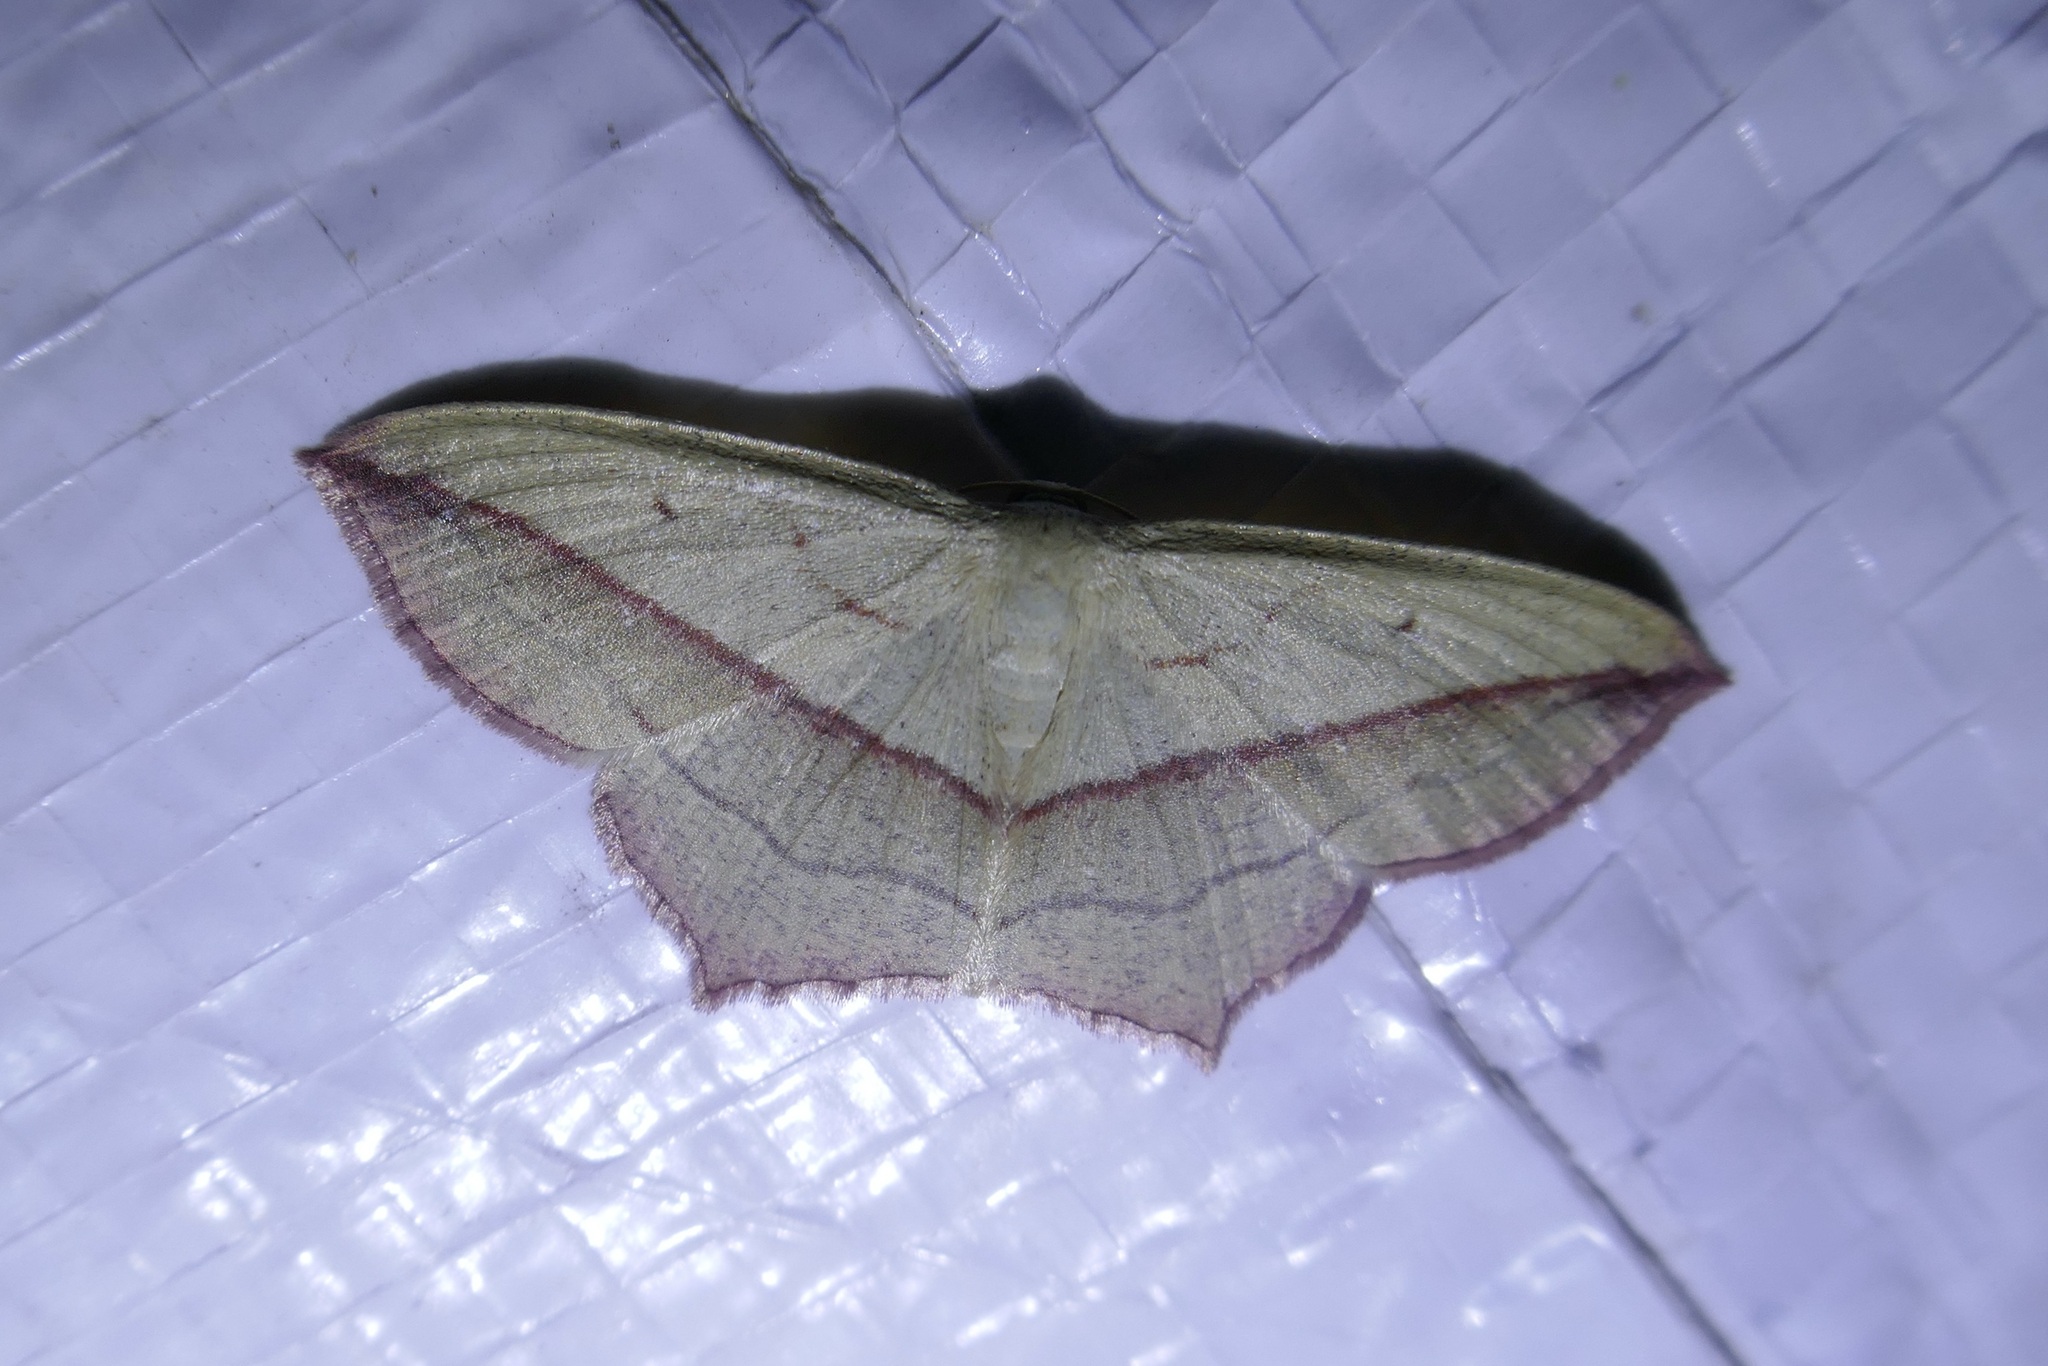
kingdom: Animalia
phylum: Arthropoda
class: Insecta
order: Lepidoptera
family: Geometridae
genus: Timandra
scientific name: Timandra comae
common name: Blood-vein
